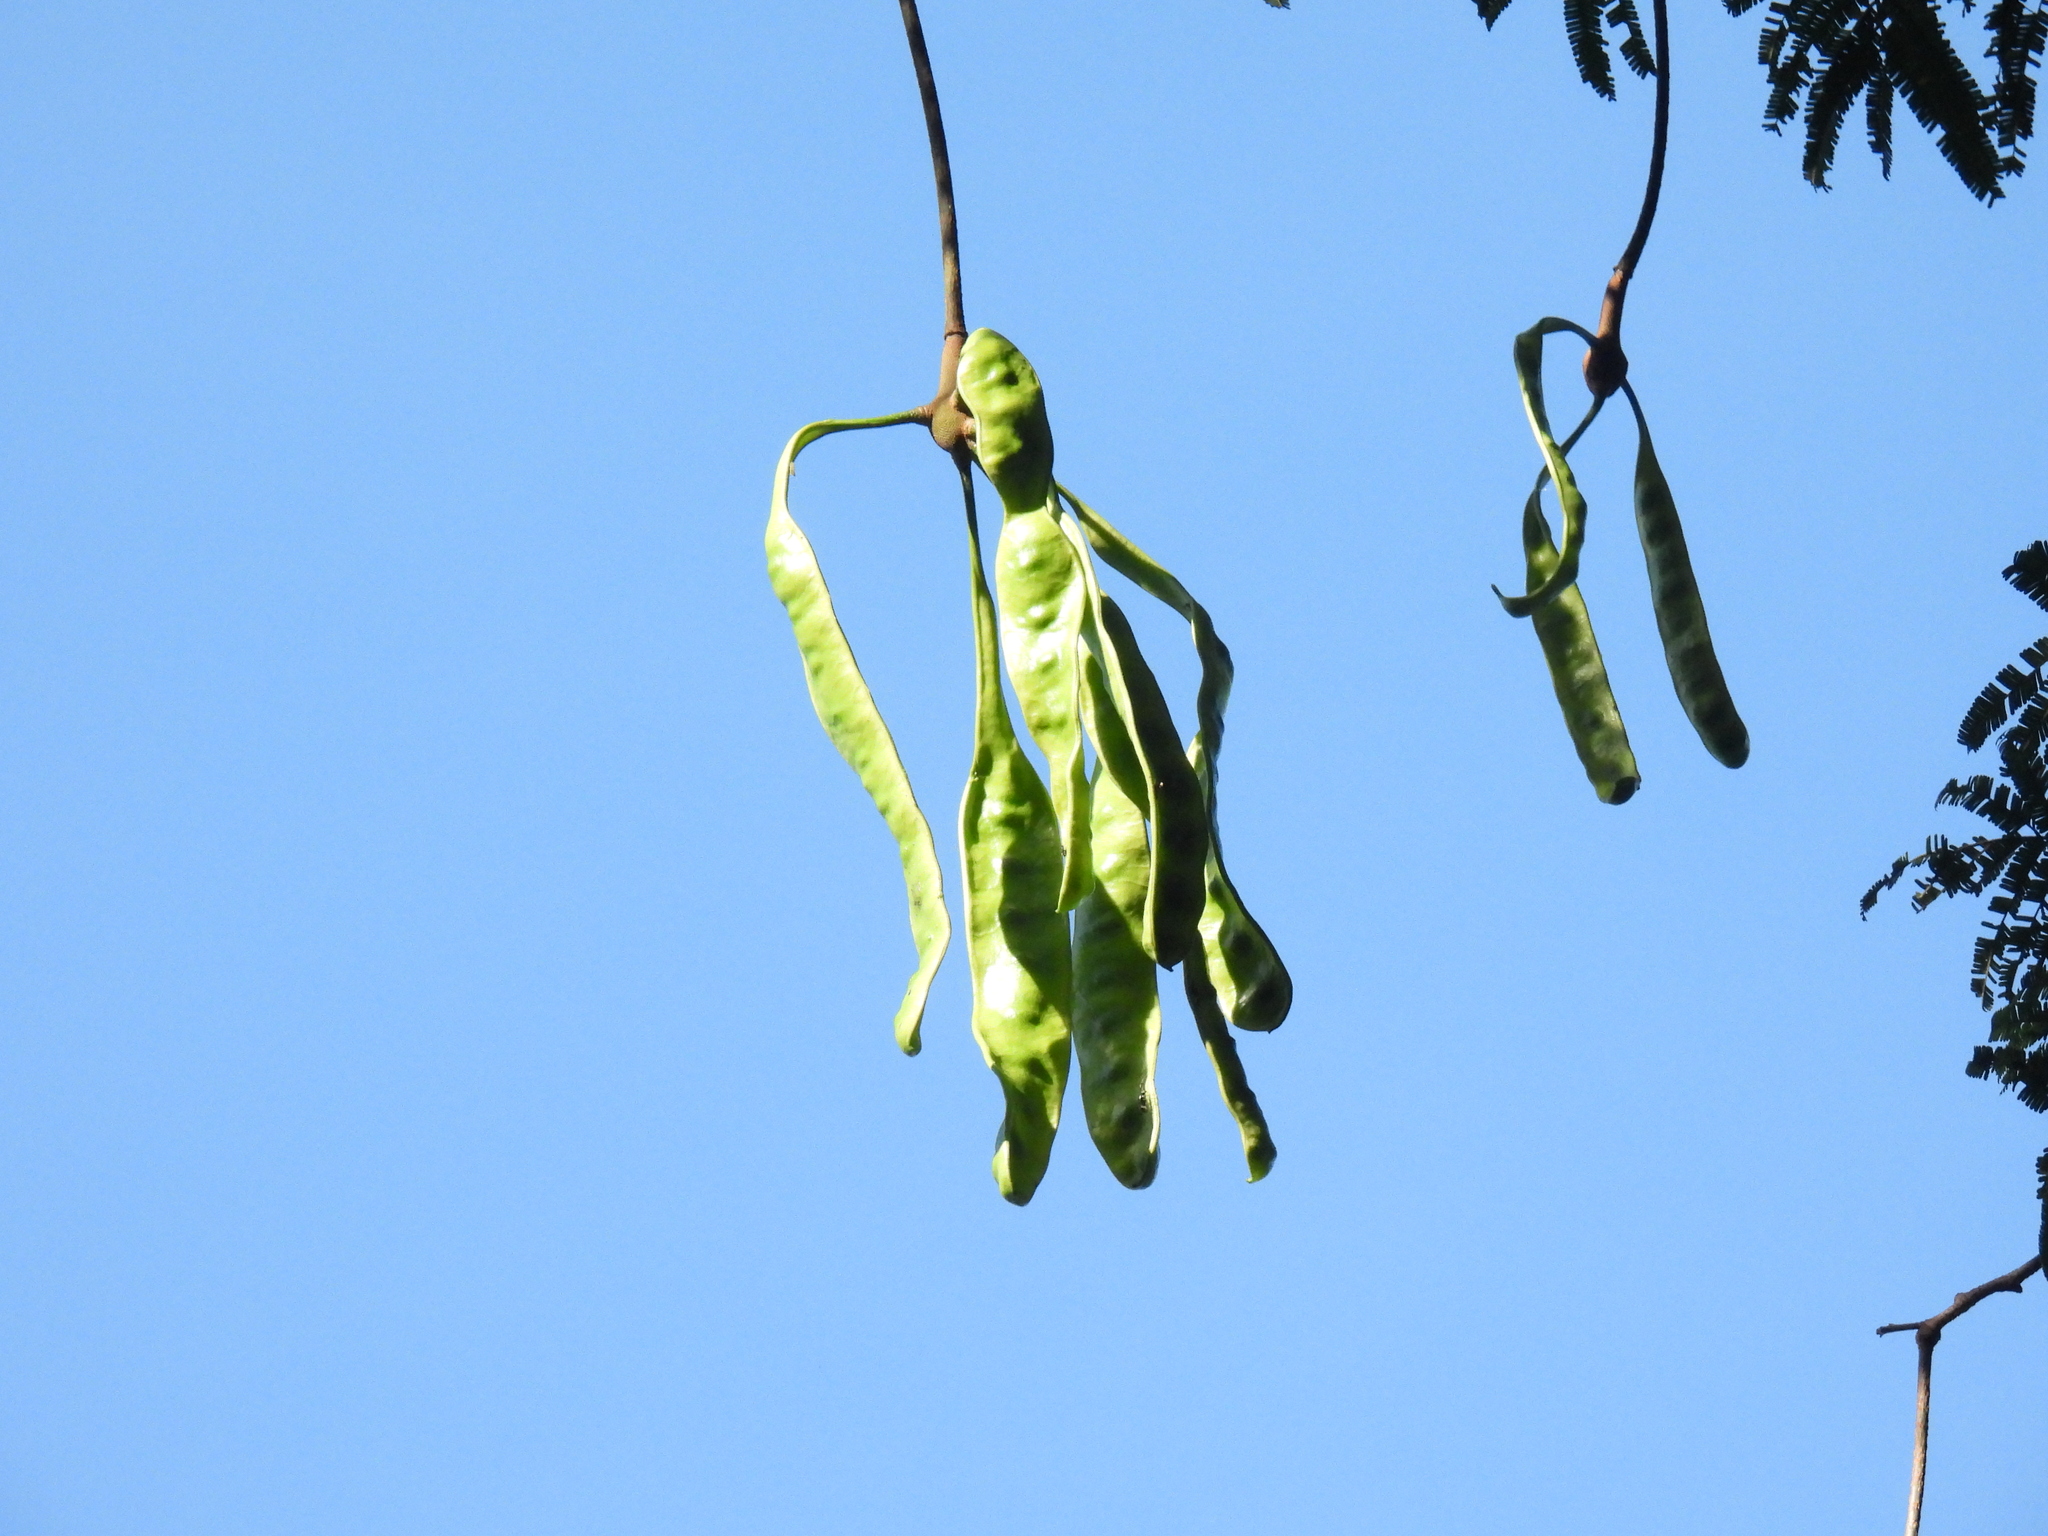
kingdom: Plantae
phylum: Tracheophyta
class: Magnoliopsida
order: Fabales
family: Fabaceae
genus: Parkia
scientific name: Parkia speciosa
